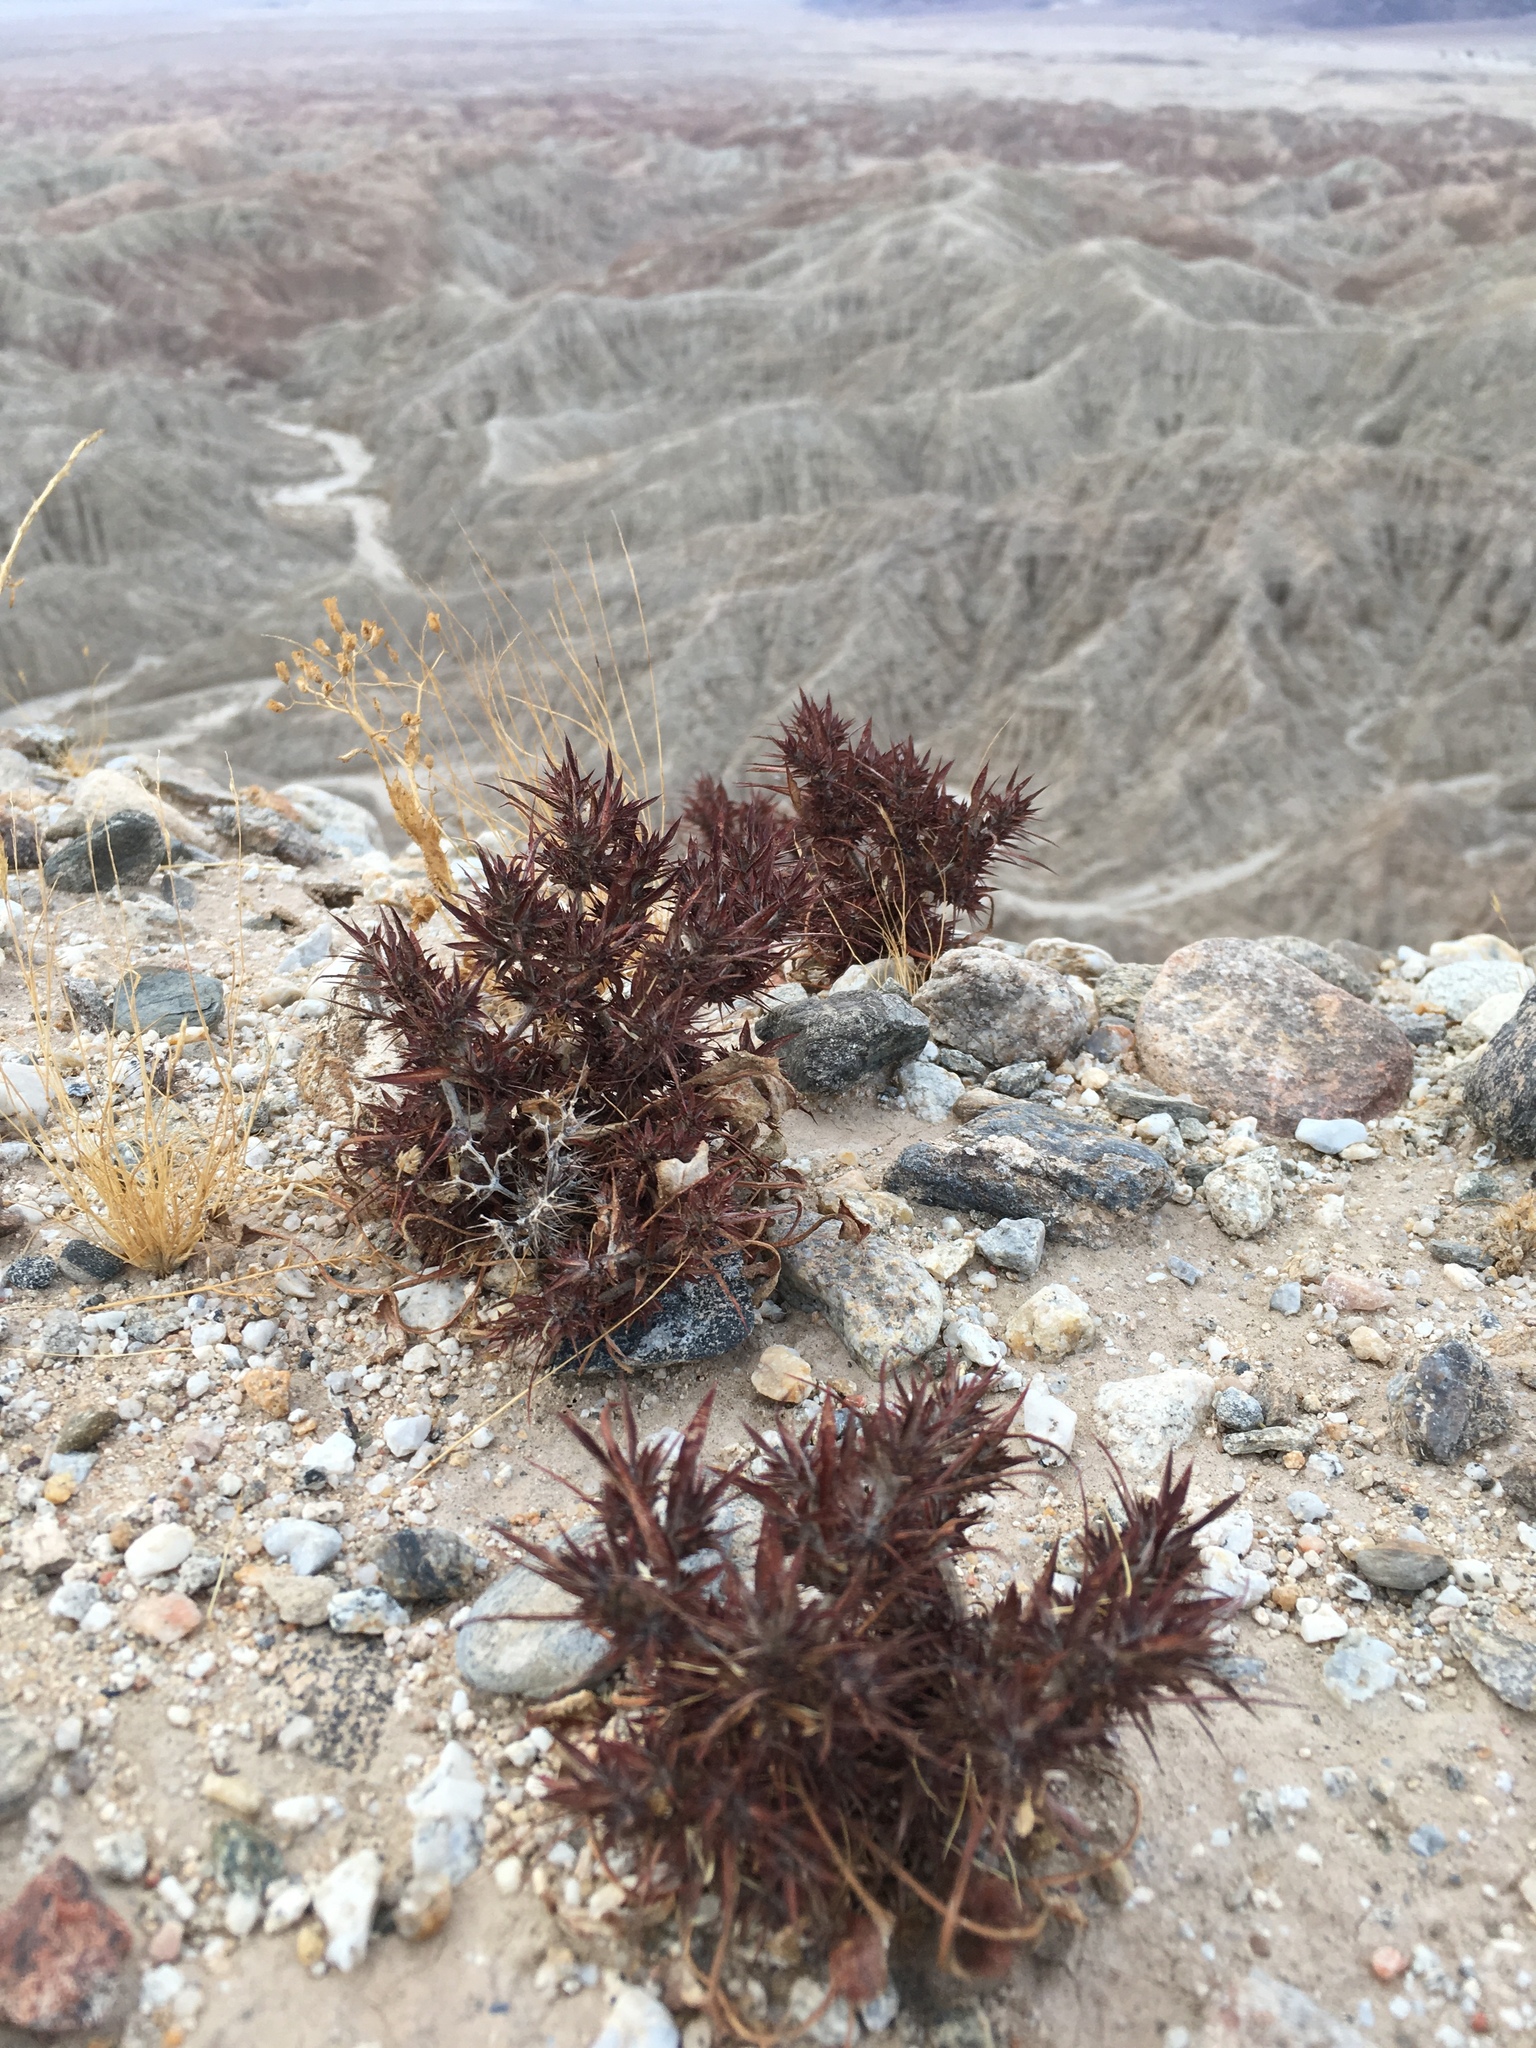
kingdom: Plantae
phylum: Tracheophyta
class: Magnoliopsida
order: Caryophyllales
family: Polygonaceae
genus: Chorizanthe
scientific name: Chorizanthe rigida
